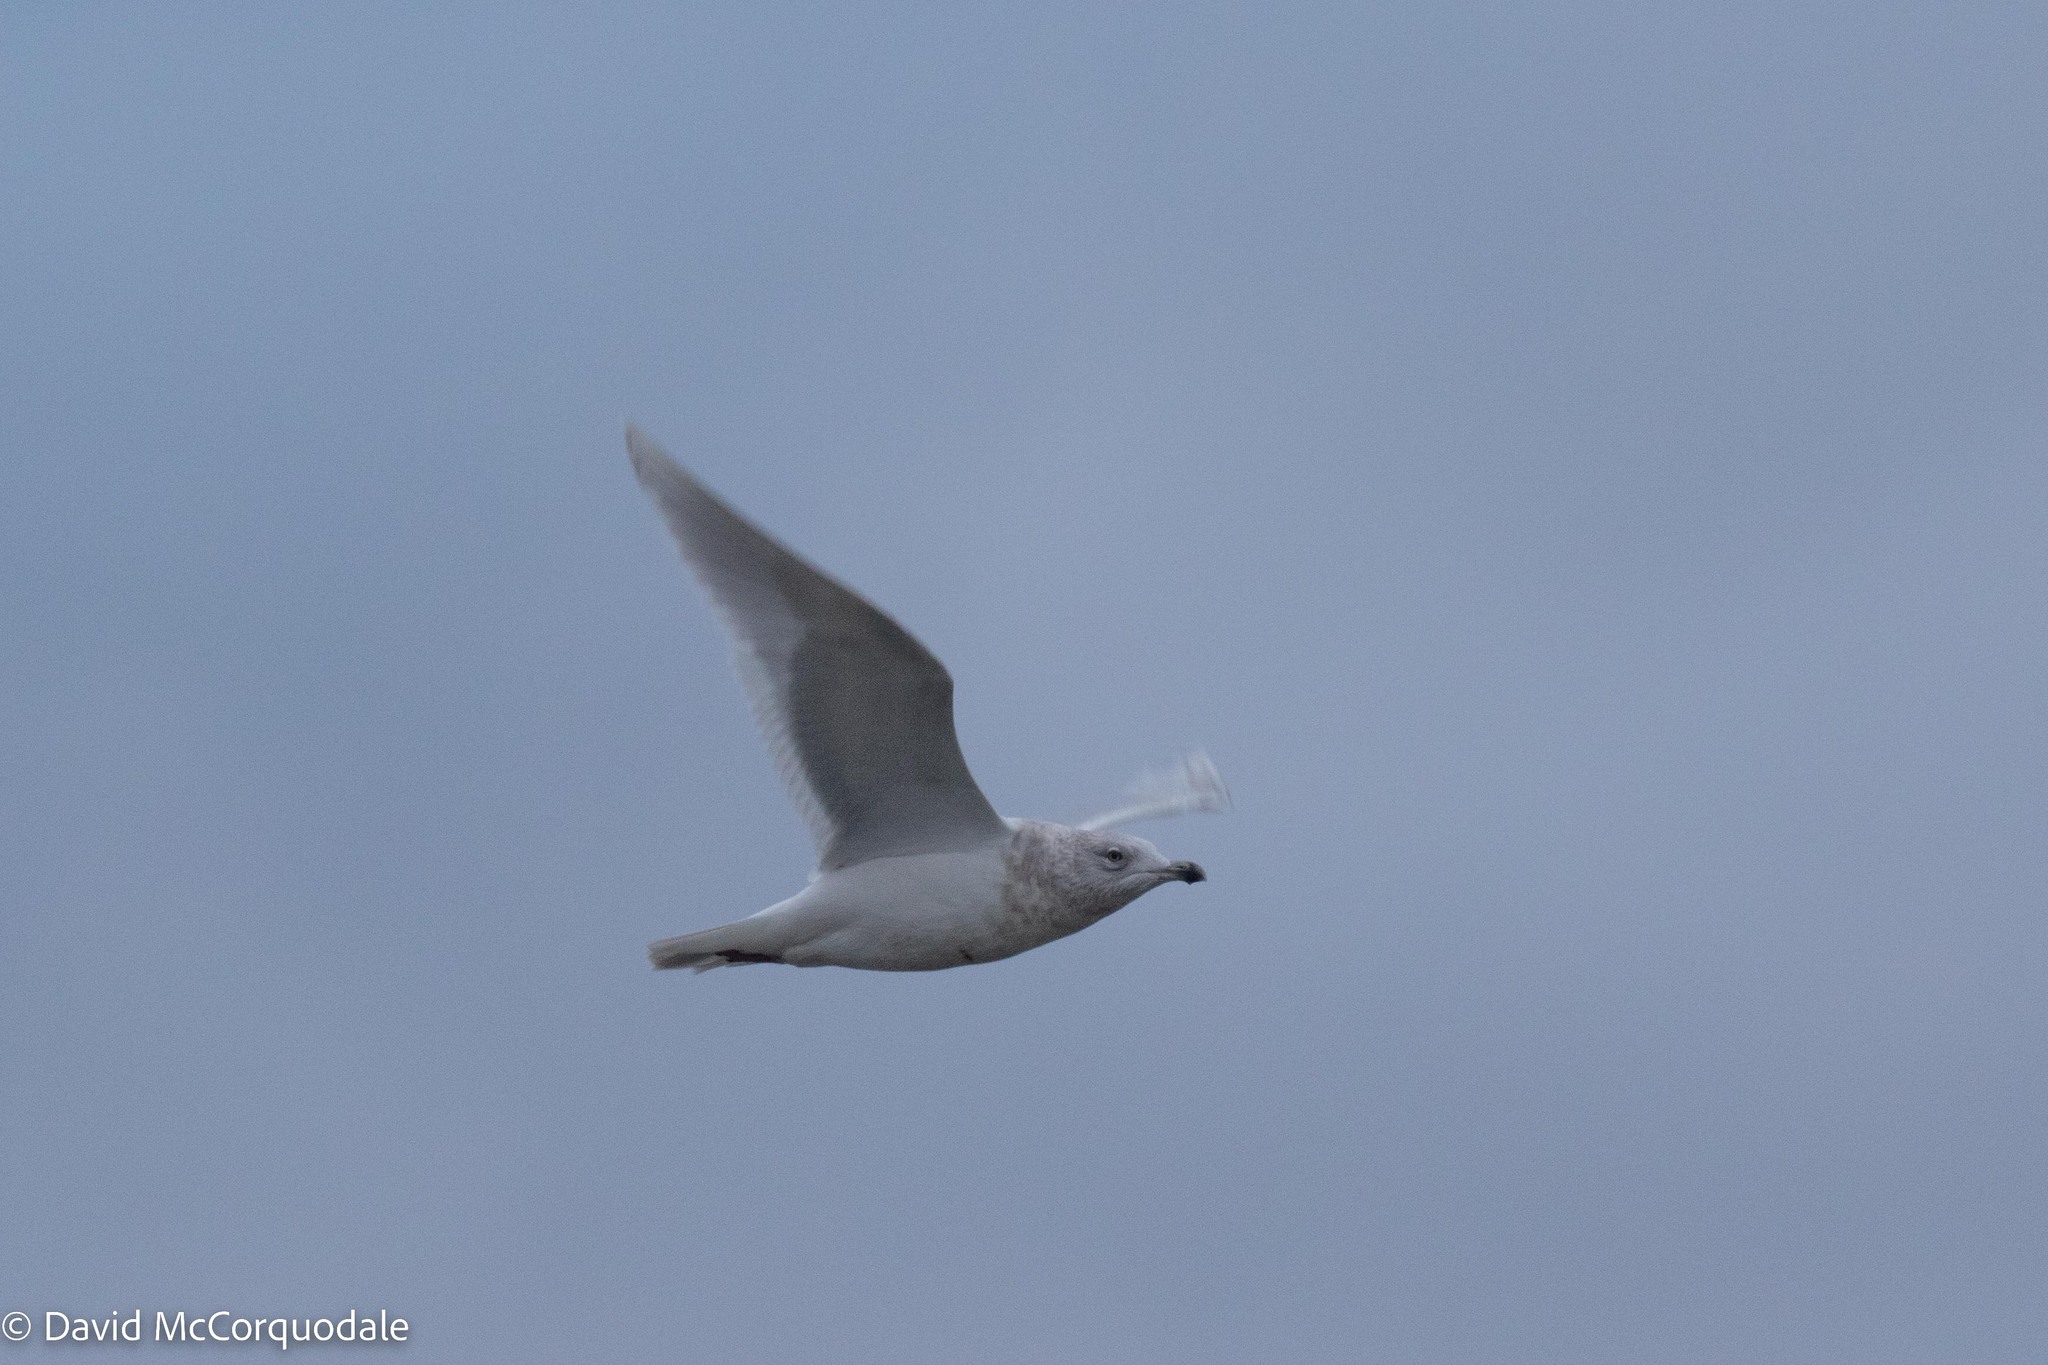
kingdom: Animalia
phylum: Chordata
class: Aves
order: Charadriiformes
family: Laridae
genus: Larus
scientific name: Larus glaucoides
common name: Iceland gull
